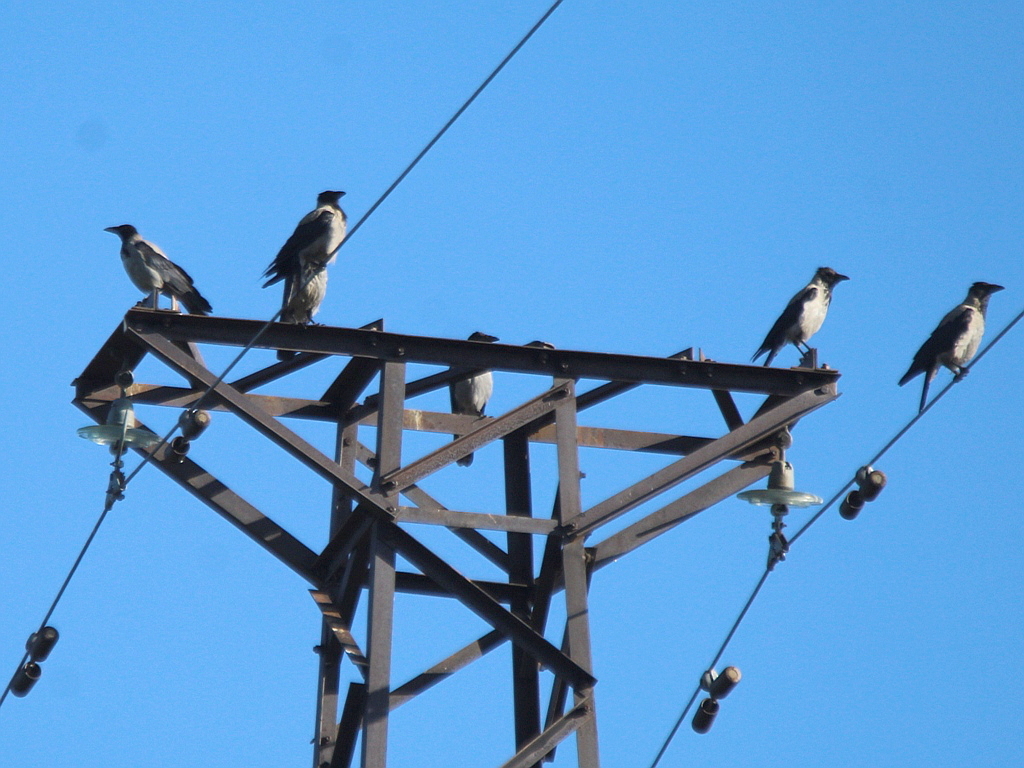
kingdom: Animalia
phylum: Chordata
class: Aves
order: Passeriformes
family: Corvidae
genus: Corvus
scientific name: Corvus cornix
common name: Hooded crow
